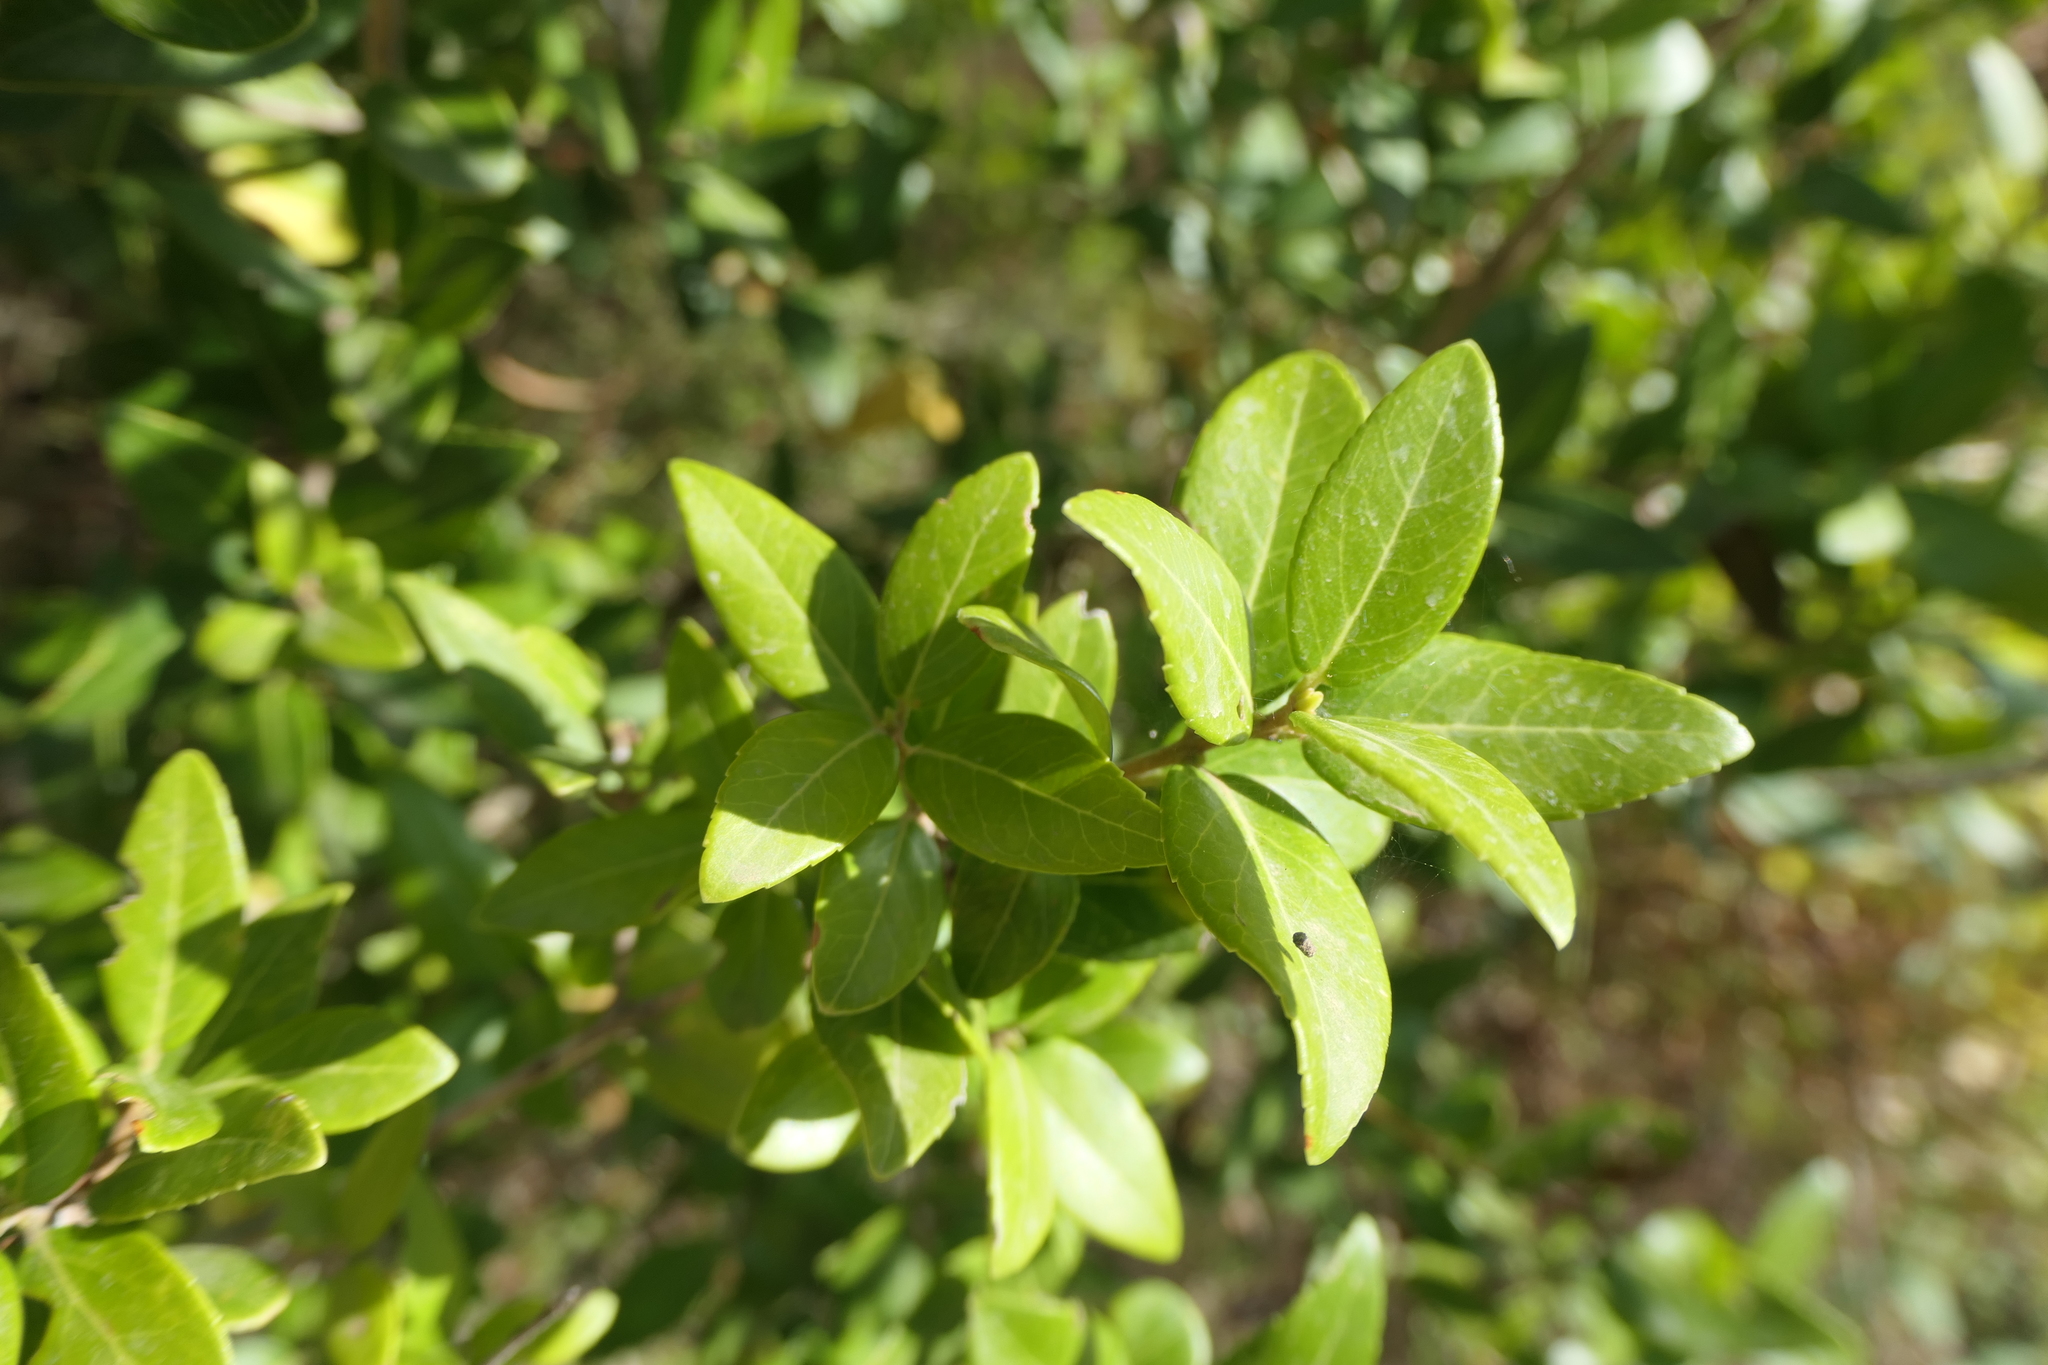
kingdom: Plantae
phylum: Tracheophyta
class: Magnoliopsida
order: Lamiales
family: Oleaceae
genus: Phillyrea
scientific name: Phillyrea latifolia
